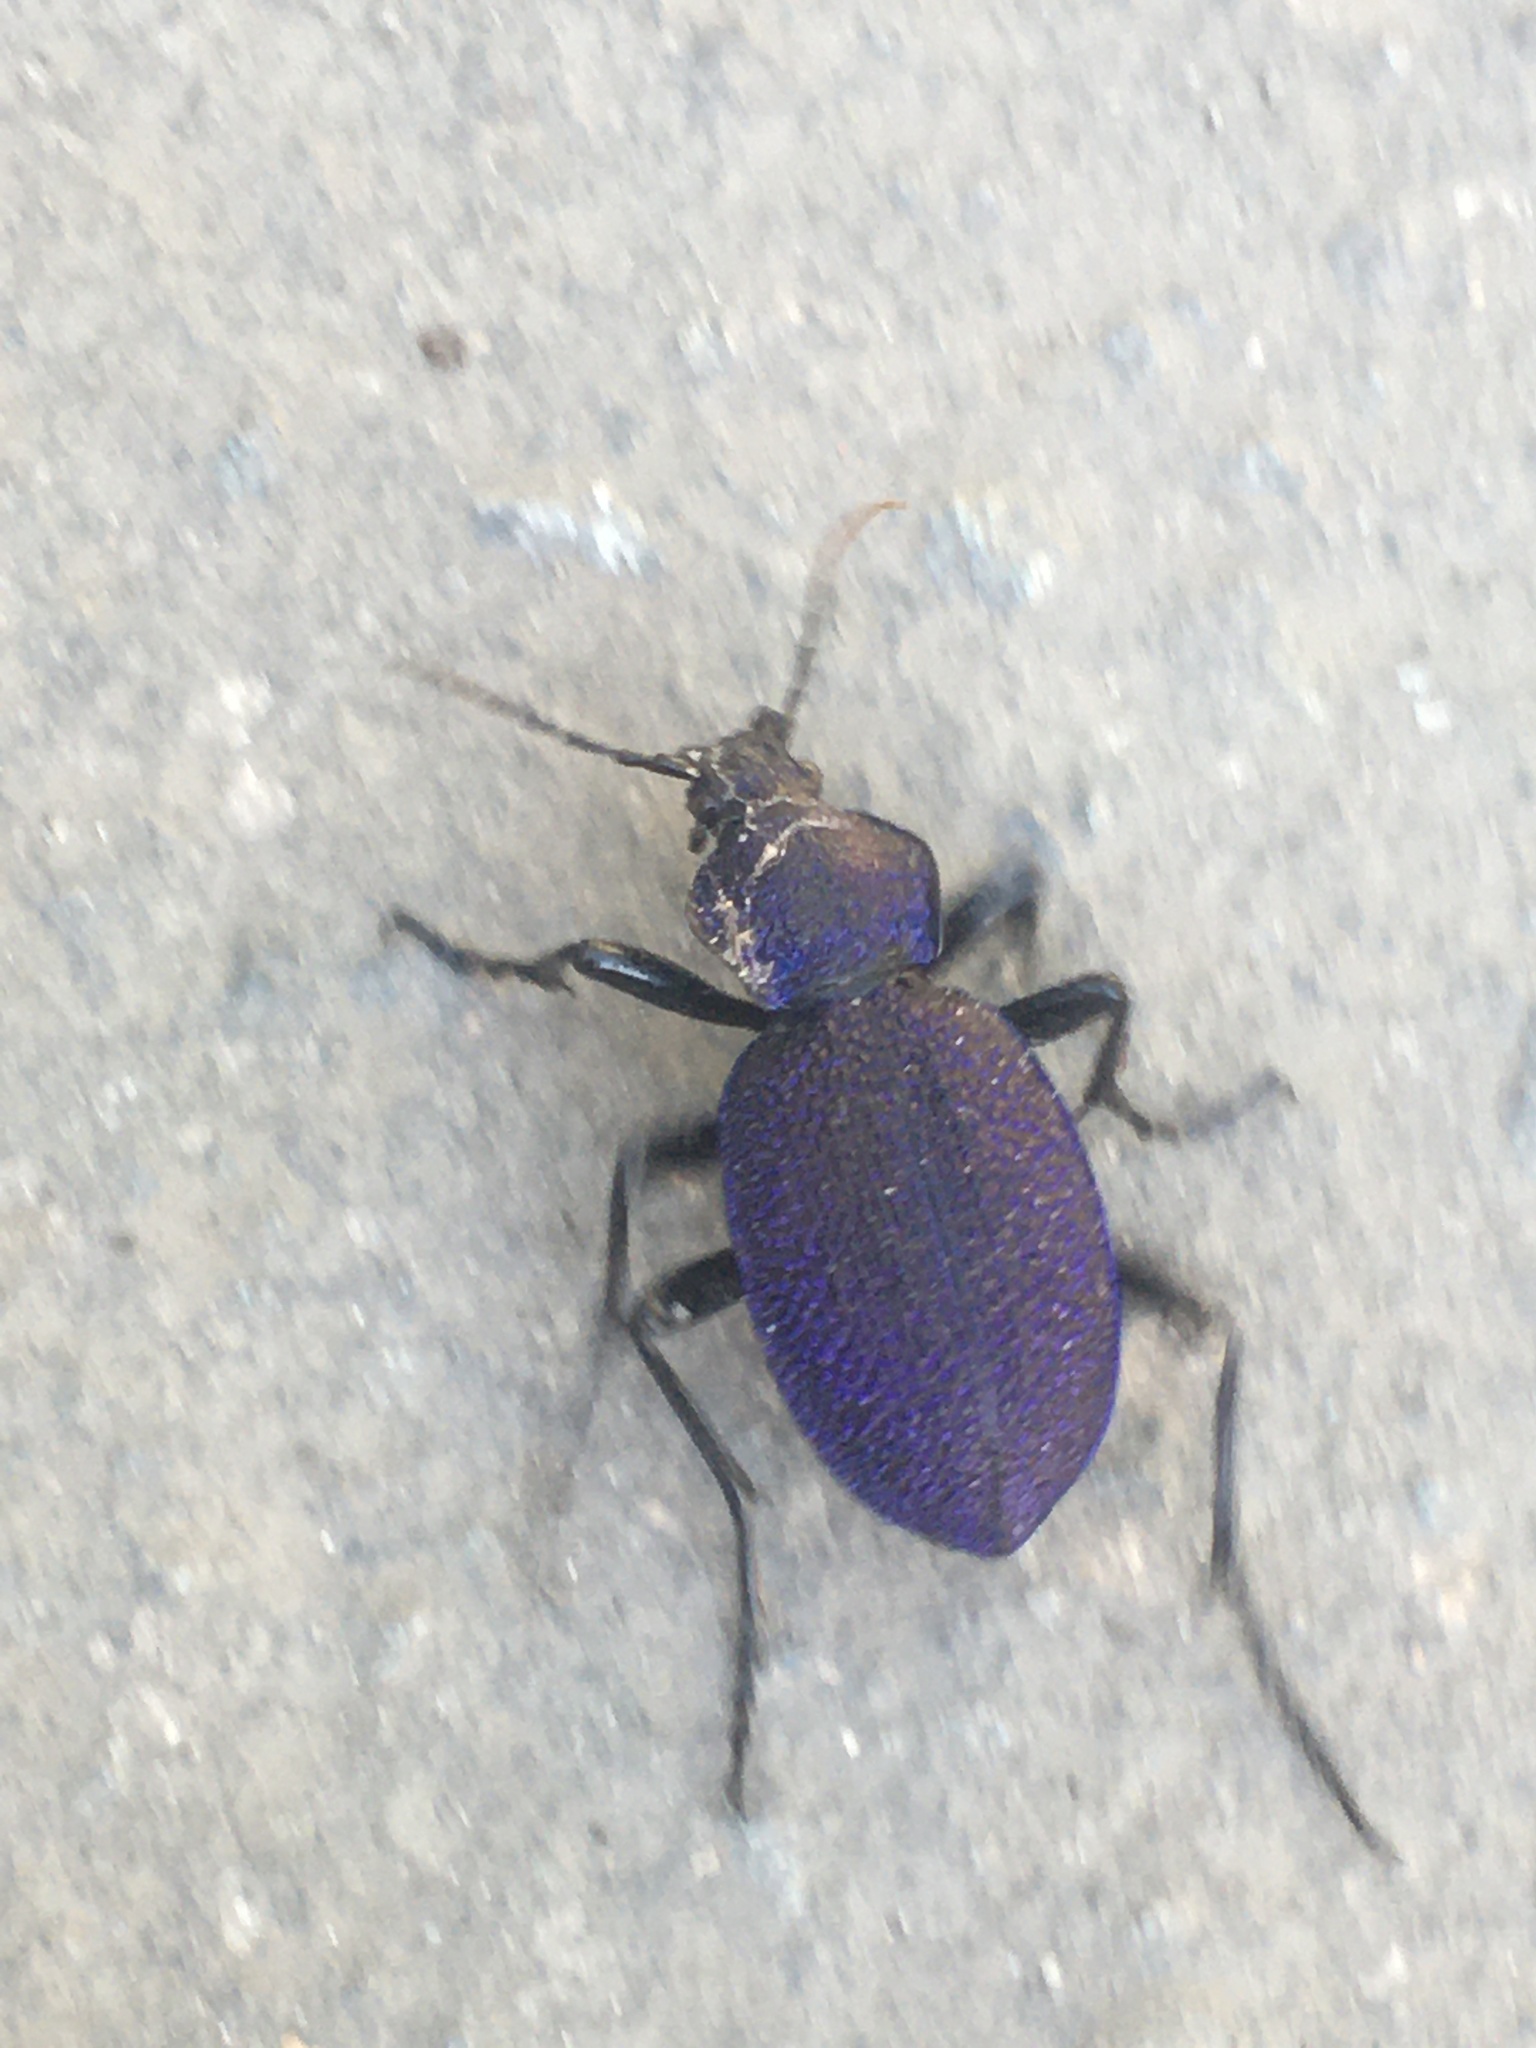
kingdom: Animalia
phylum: Arthropoda
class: Insecta
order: Coleoptera
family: Carabidae
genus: Carabus
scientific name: Carabus scabrosus
